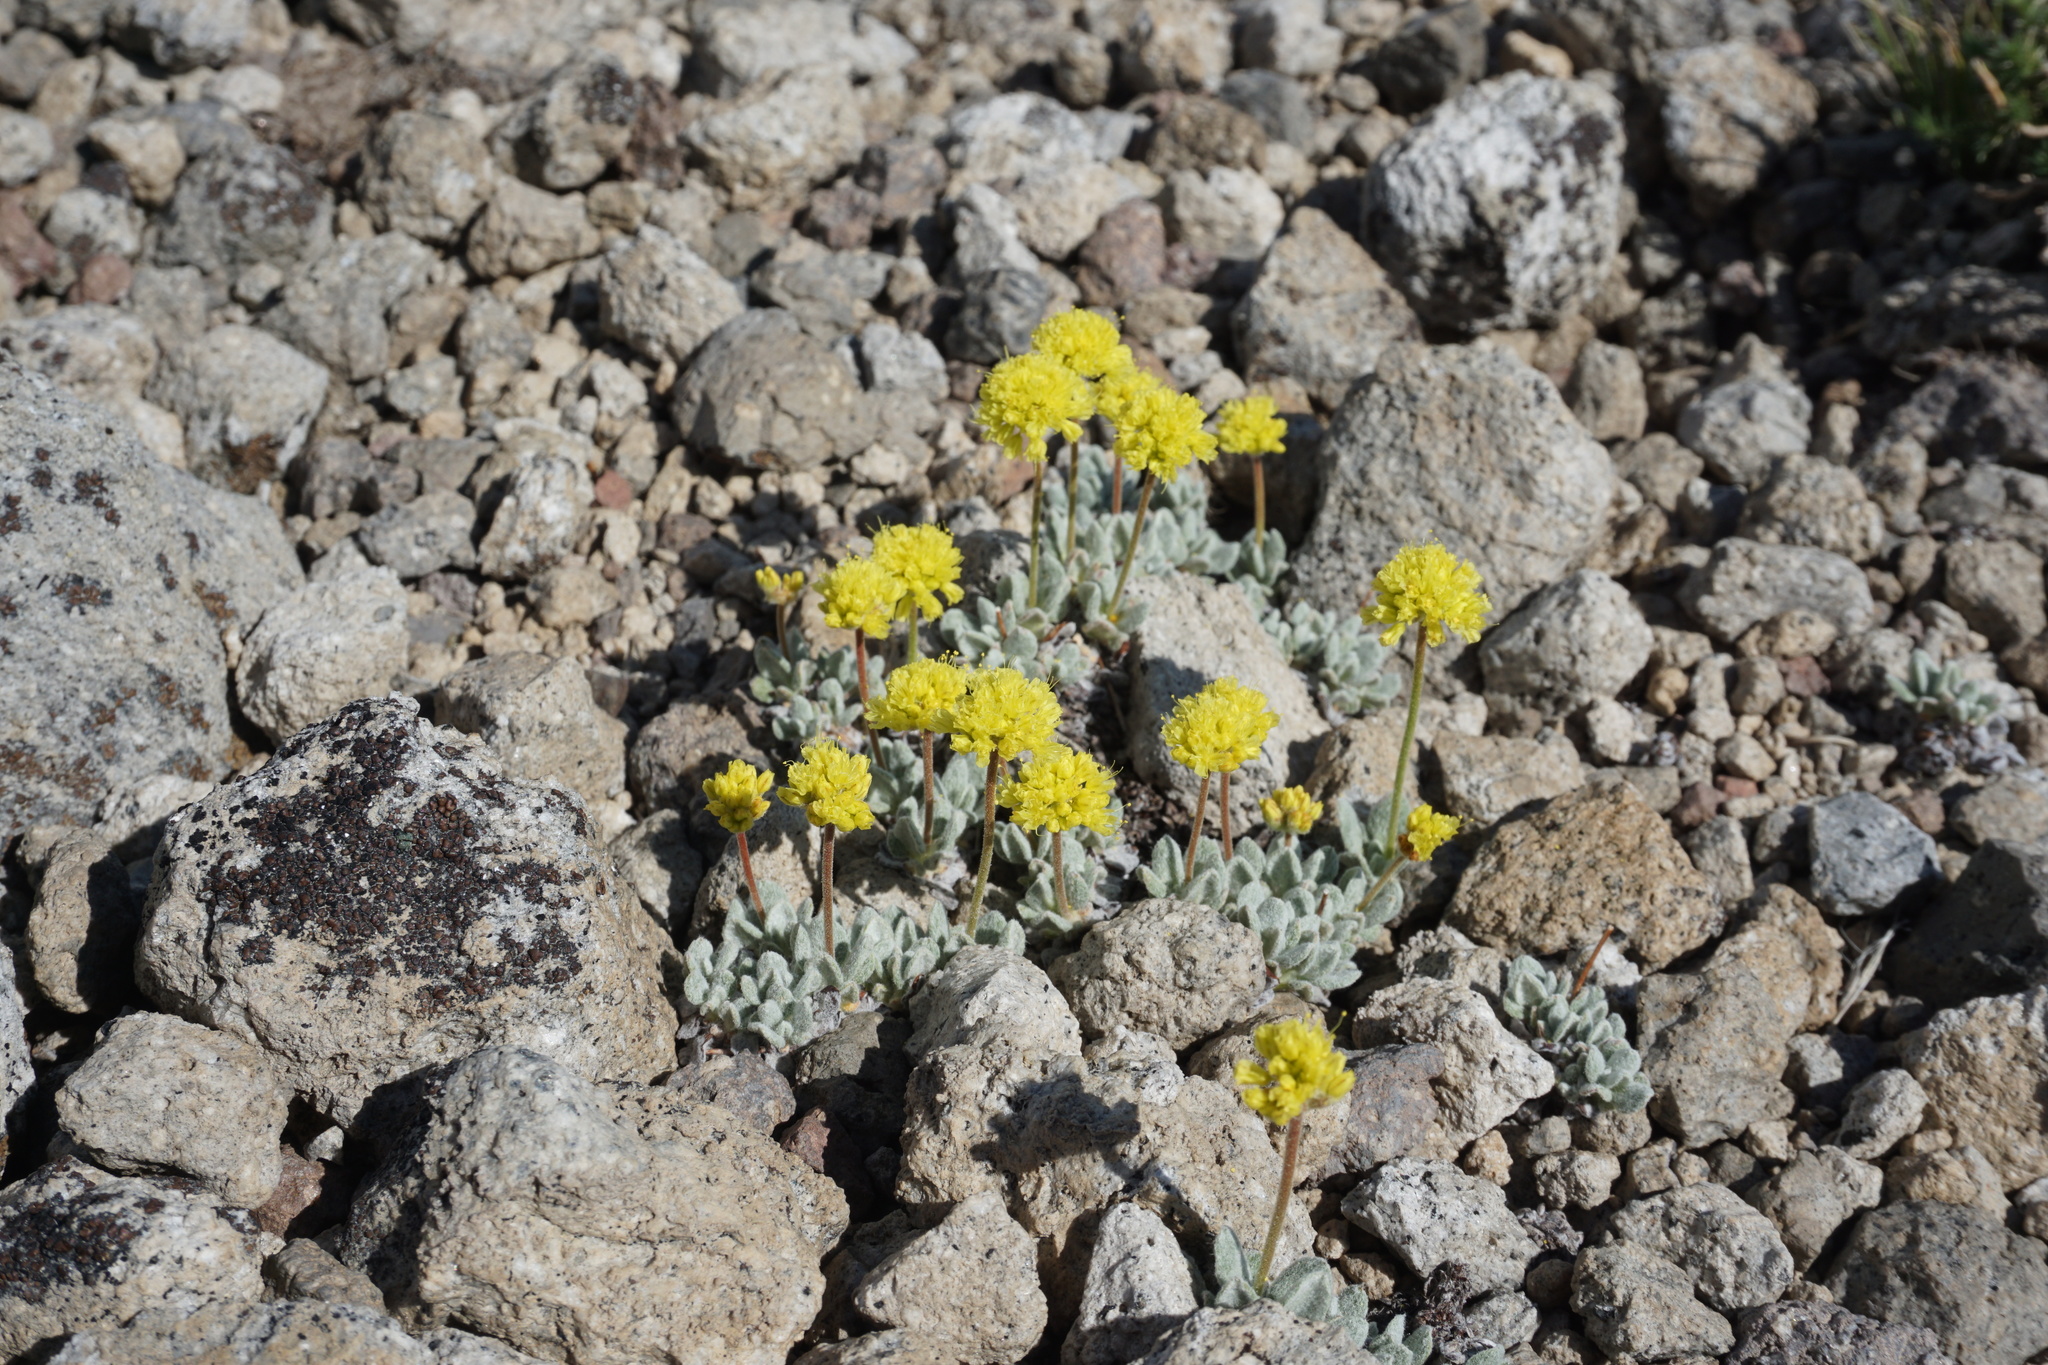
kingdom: Plantae
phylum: Tracheophyta
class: Magnoliopsida
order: Caryophyllales
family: Polygonaceae
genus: Eriogonum
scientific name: Eriogonum rosense
